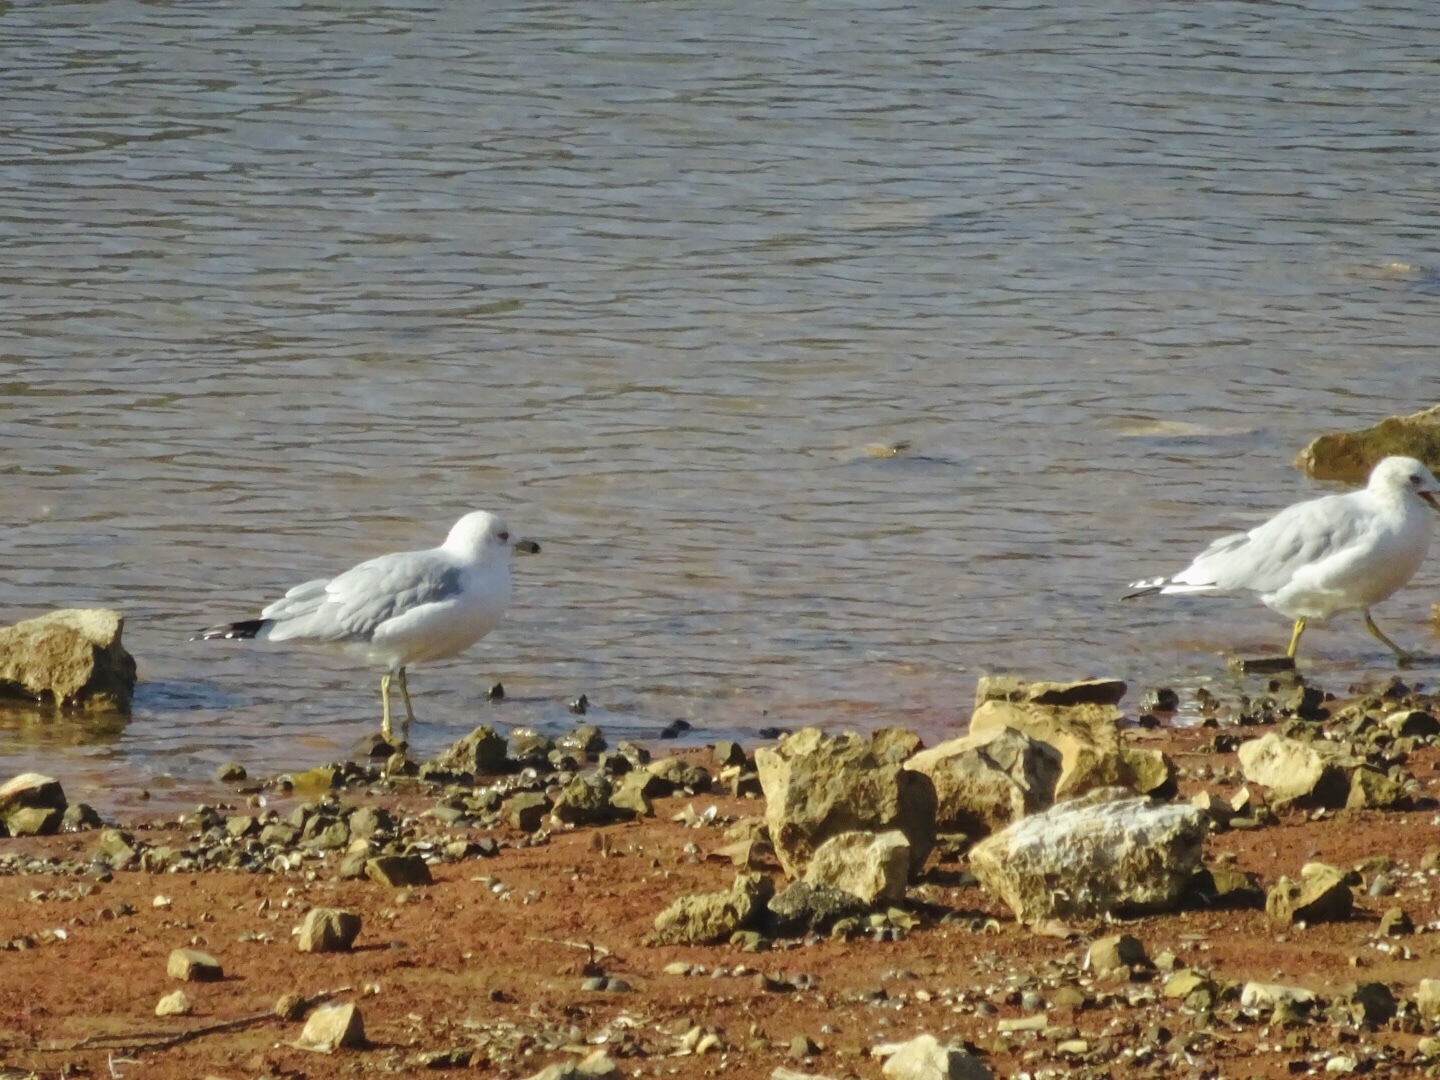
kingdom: Animalia
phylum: Chordata
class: Aves
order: Charadriiformes
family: Laridae
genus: Larus
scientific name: Larus delawarensis
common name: Ring-billed gull
